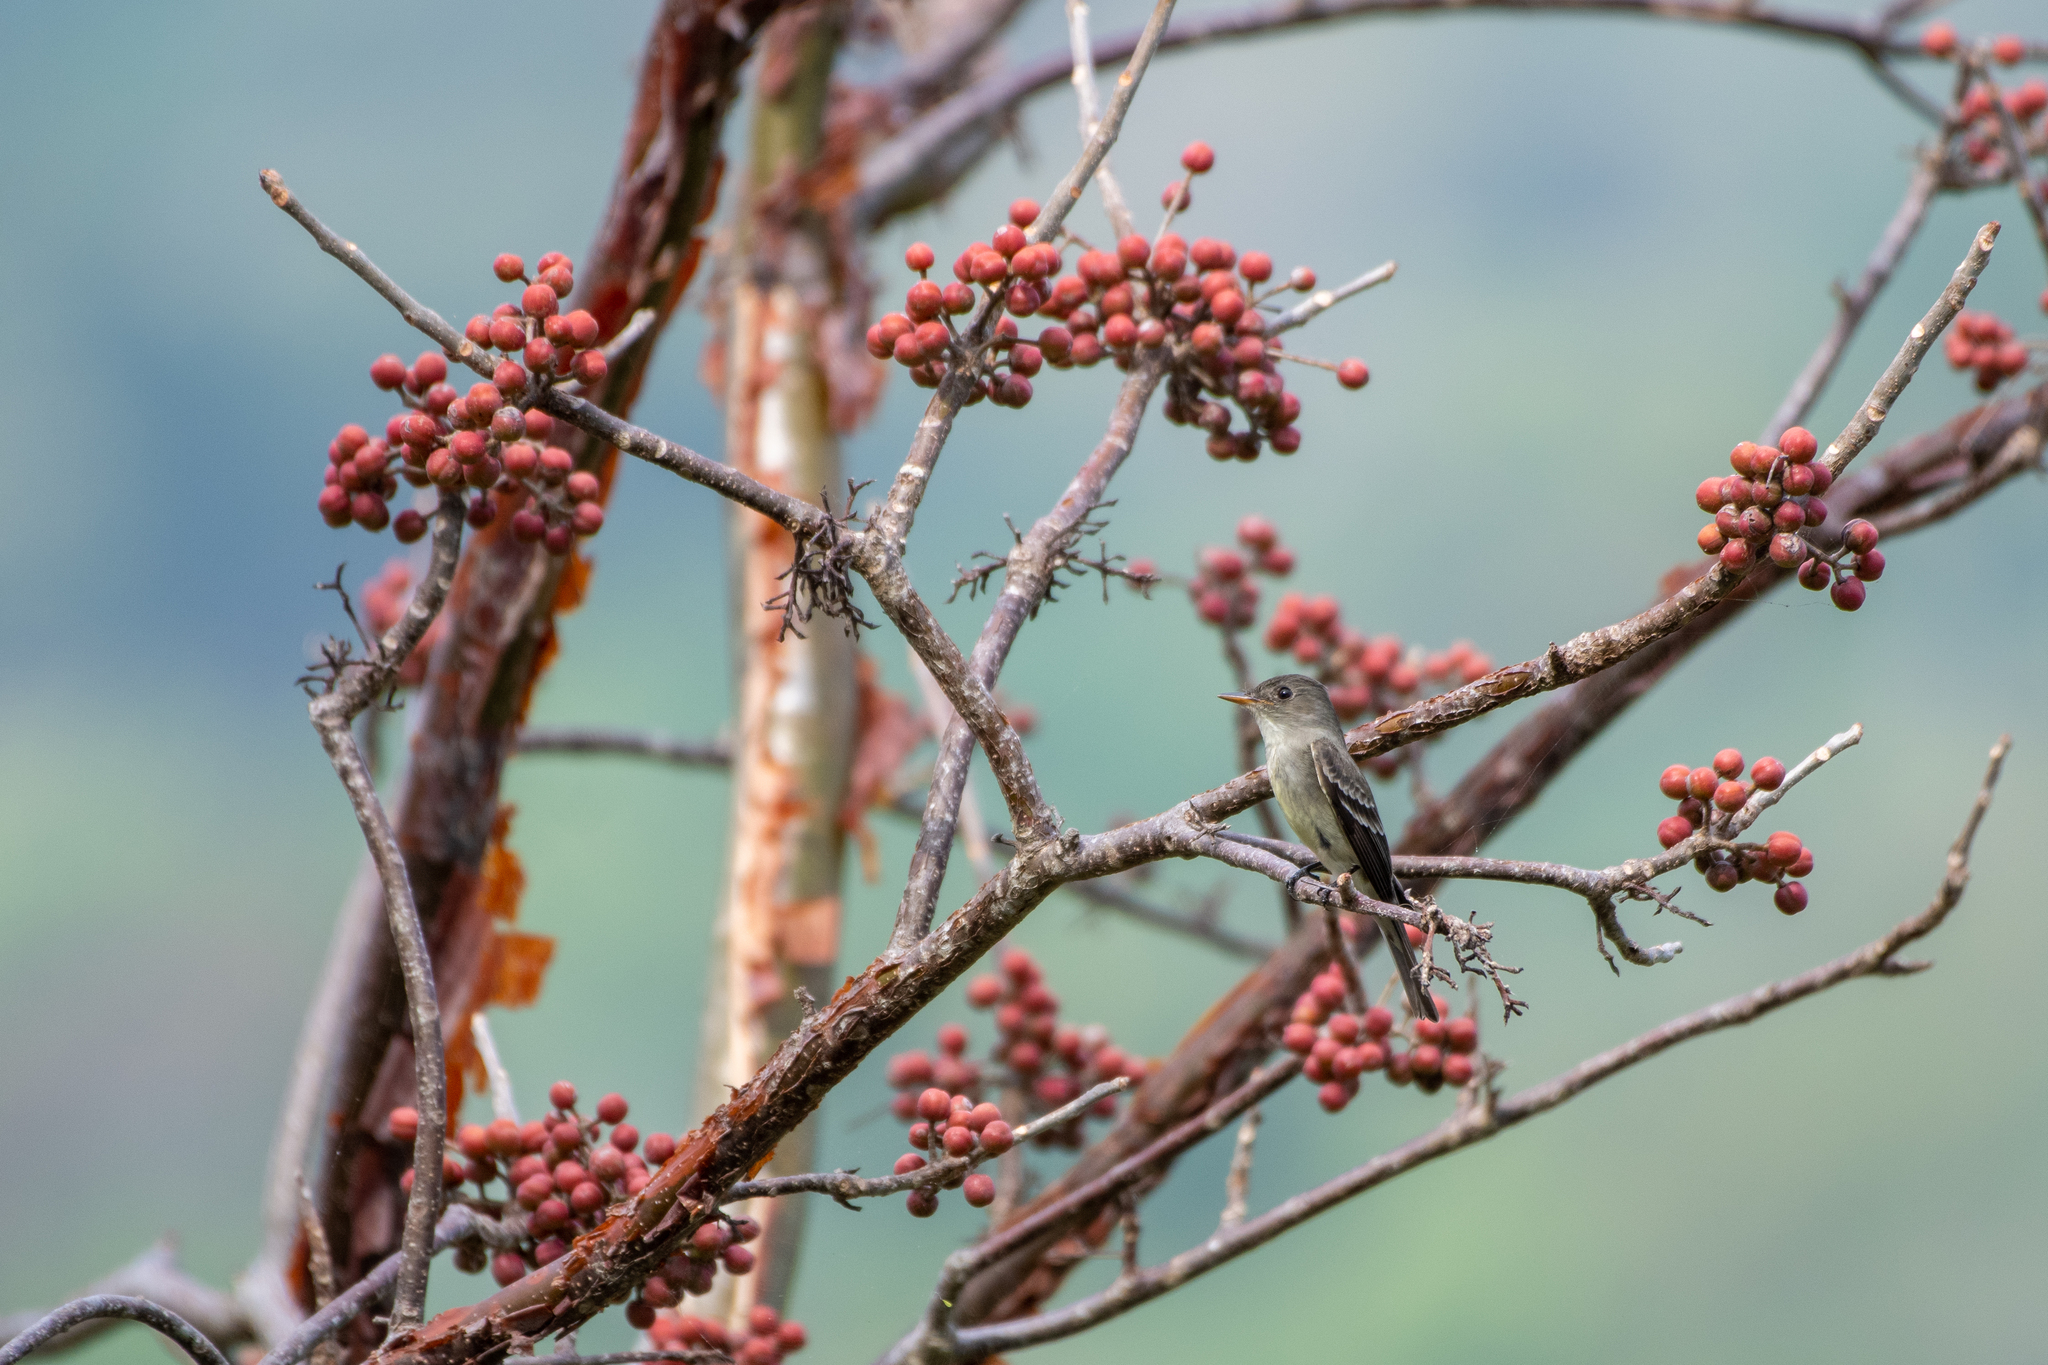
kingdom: Animalia
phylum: Chordata
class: Aves
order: Passeriformes
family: Tyrannidae
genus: Contopus
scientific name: Contopus virens
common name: Eastern wood-pewee
